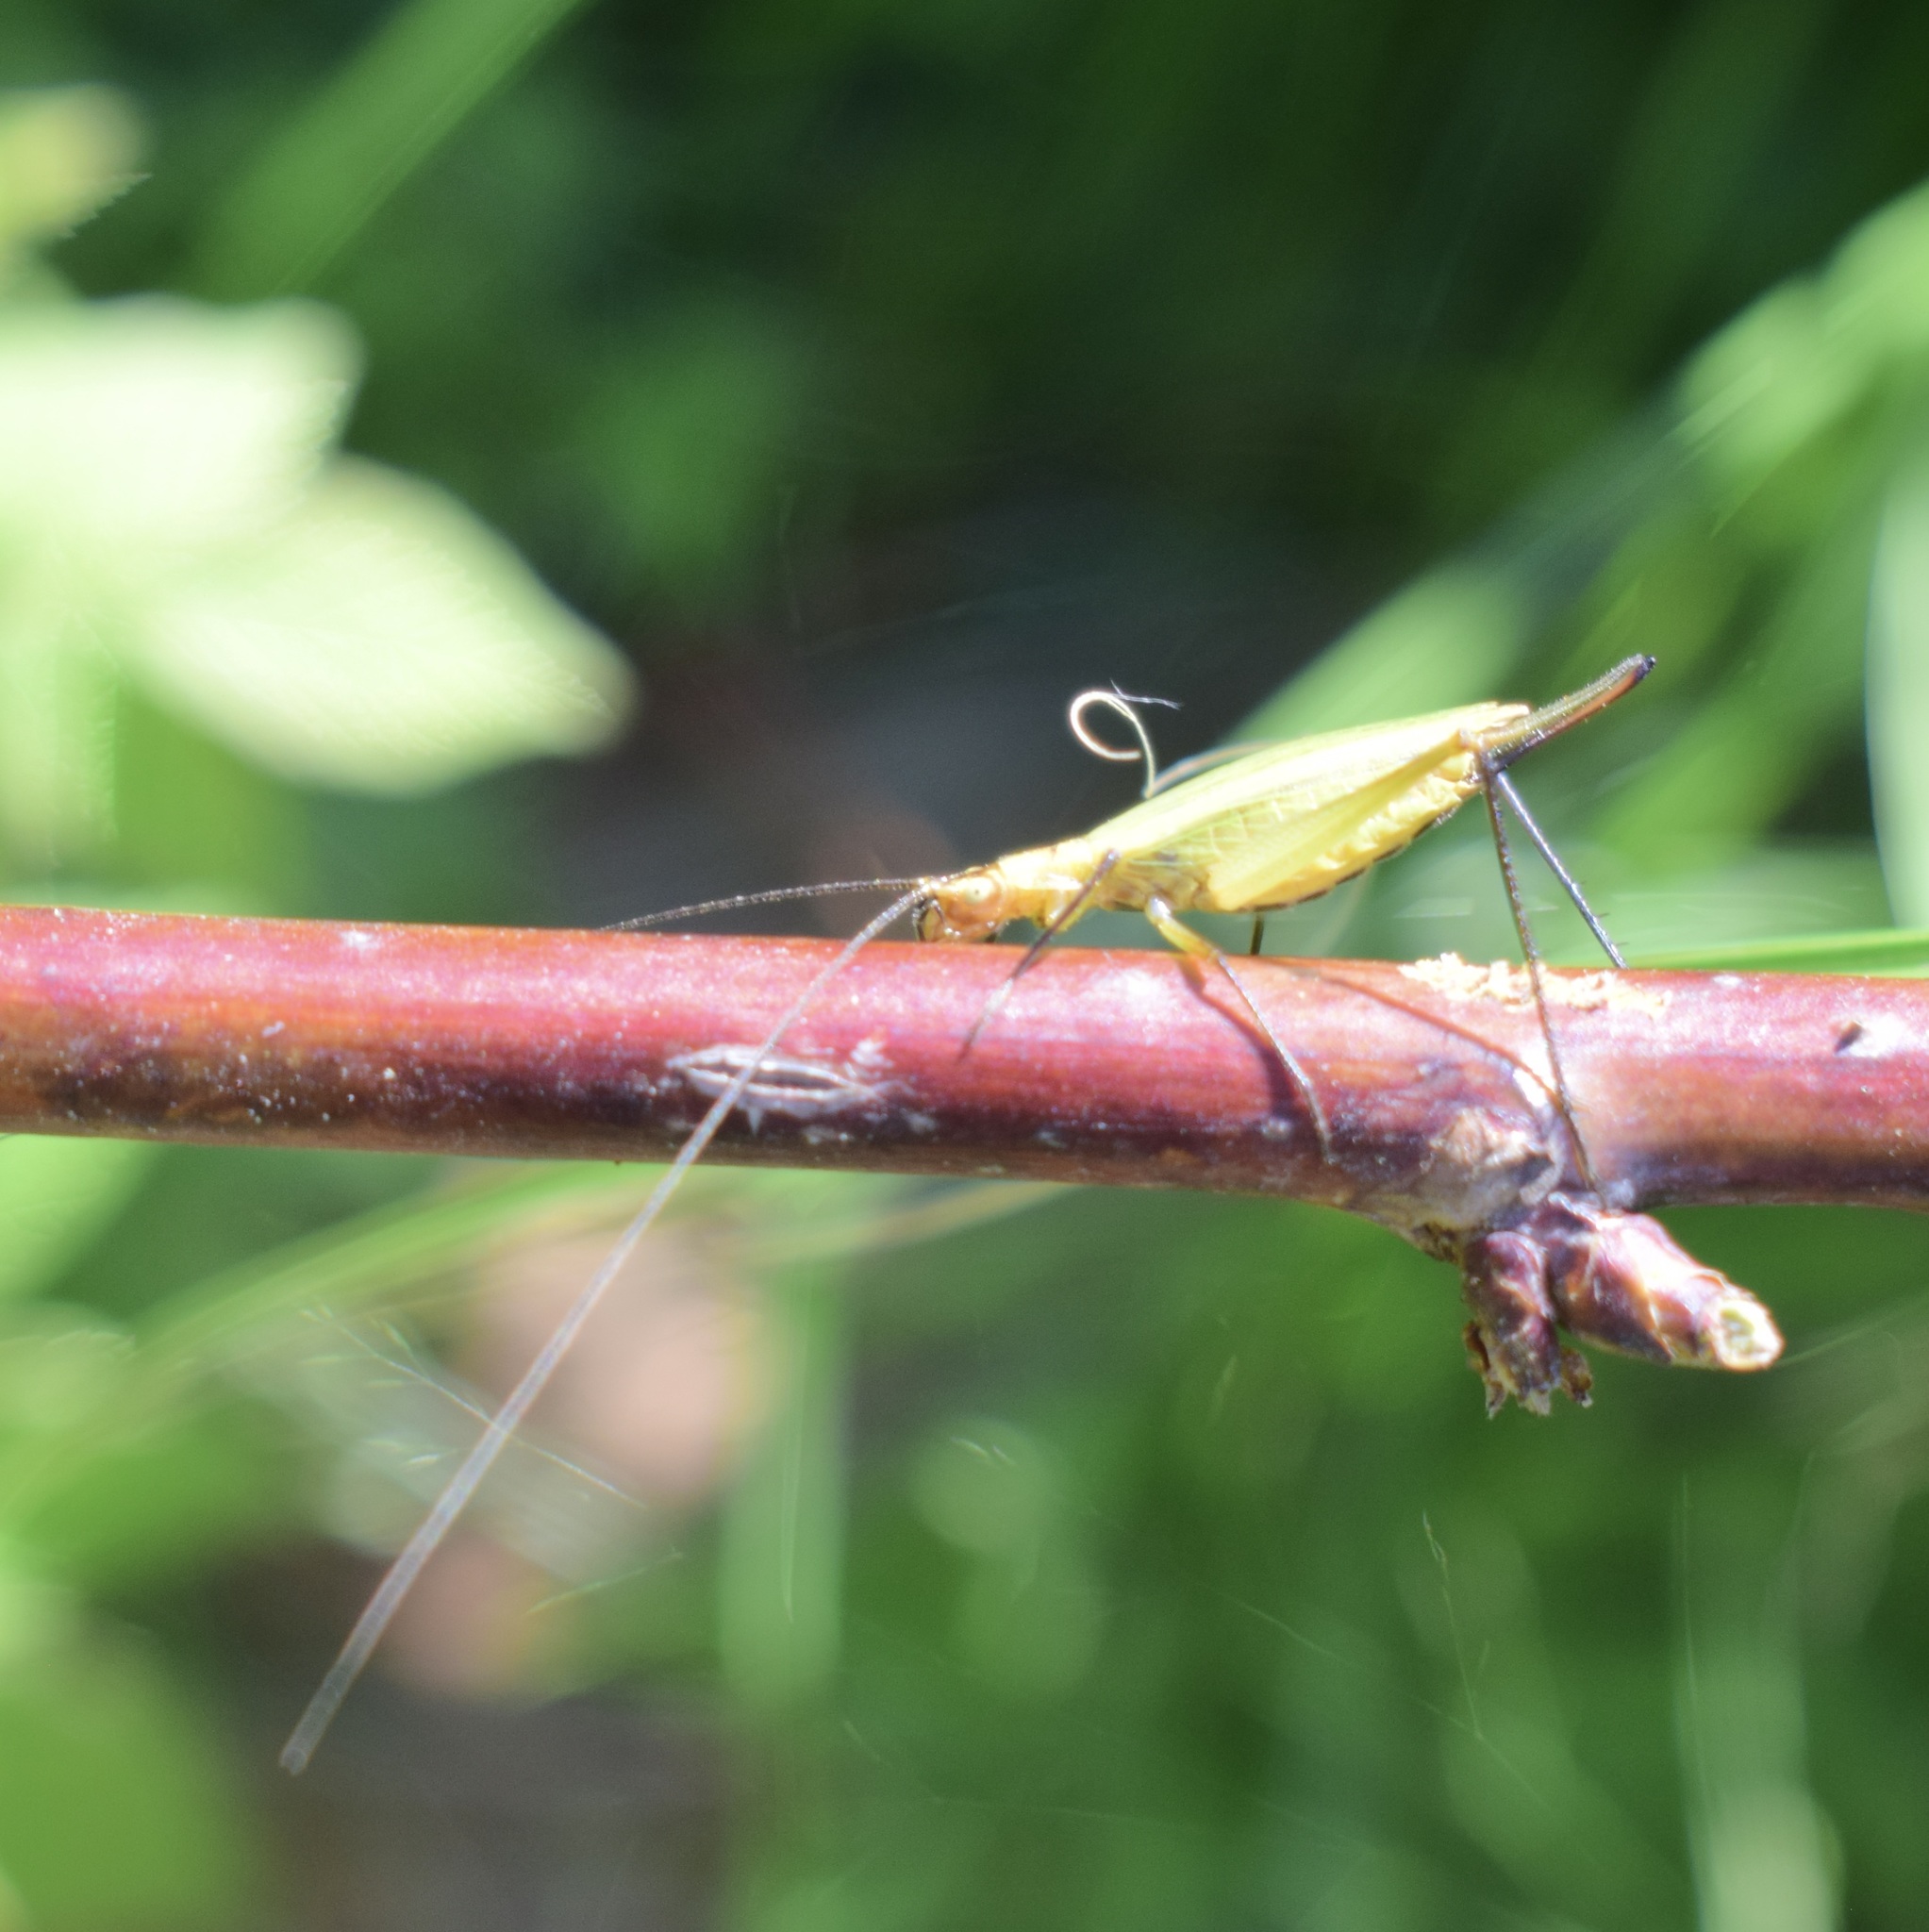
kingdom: Animalia
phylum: Arthropoda
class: Insecta
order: Orthoptera
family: Gryllidae
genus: Oecanthus
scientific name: Oecanthus nigricornis
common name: Black-horned tree cricket
